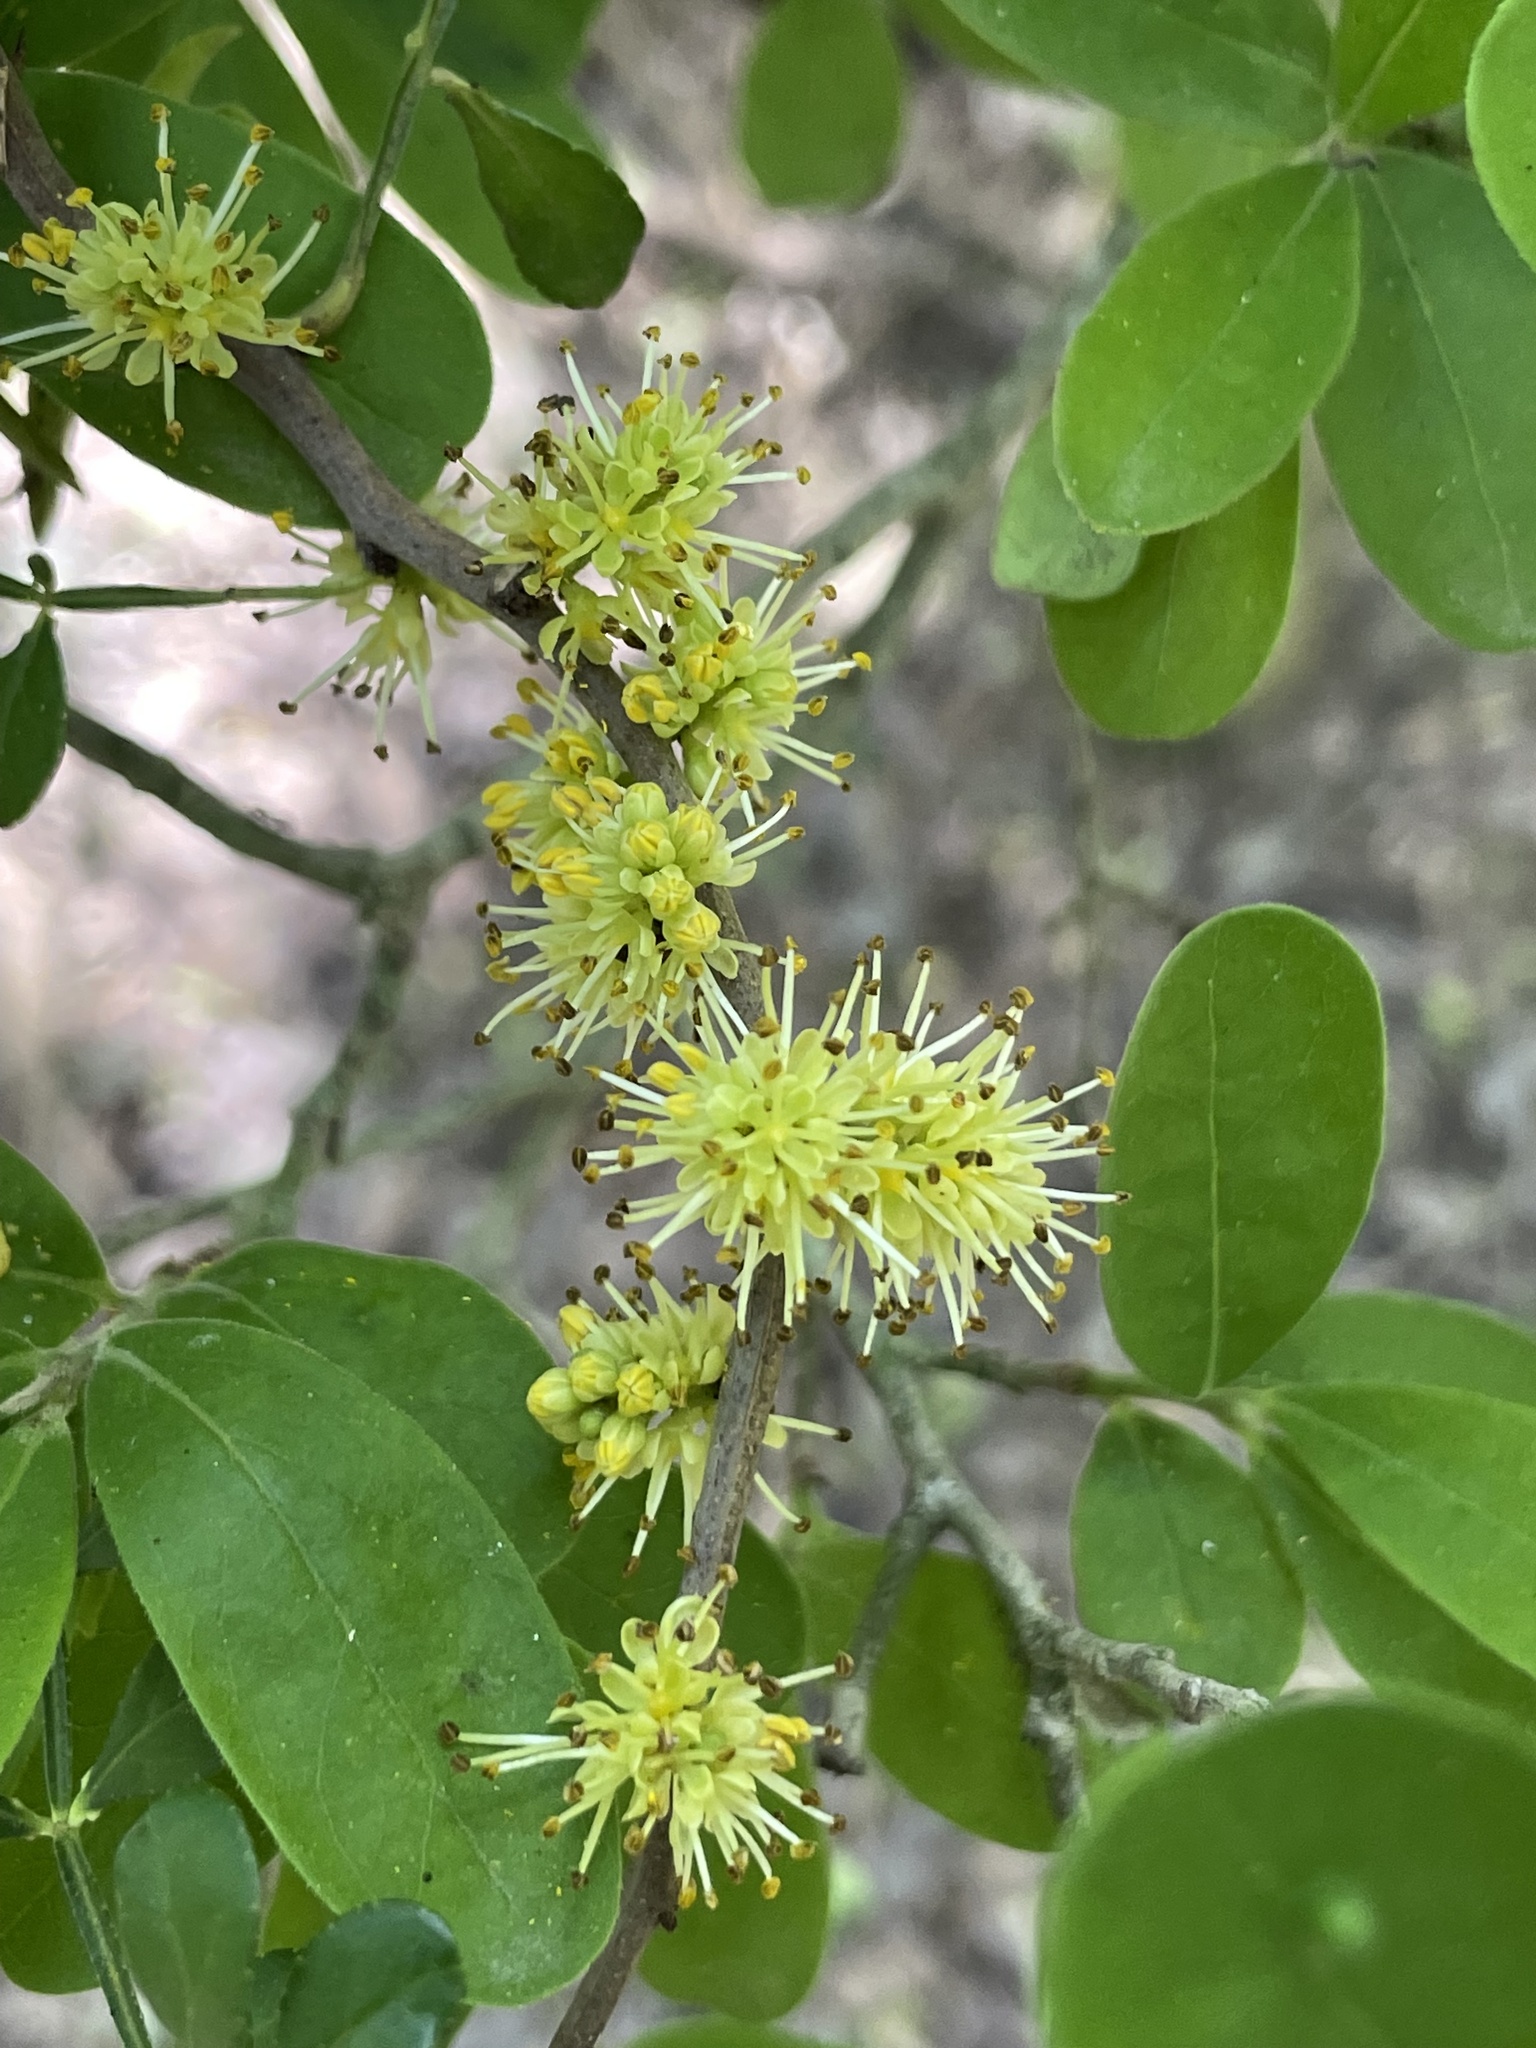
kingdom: Plantae
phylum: Tracheophyta
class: Magnoliopsida
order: Sapindales
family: Rutaceae
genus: Zanthoxylum
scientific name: Zanthoxylum fagara
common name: Lime prickly-ash
